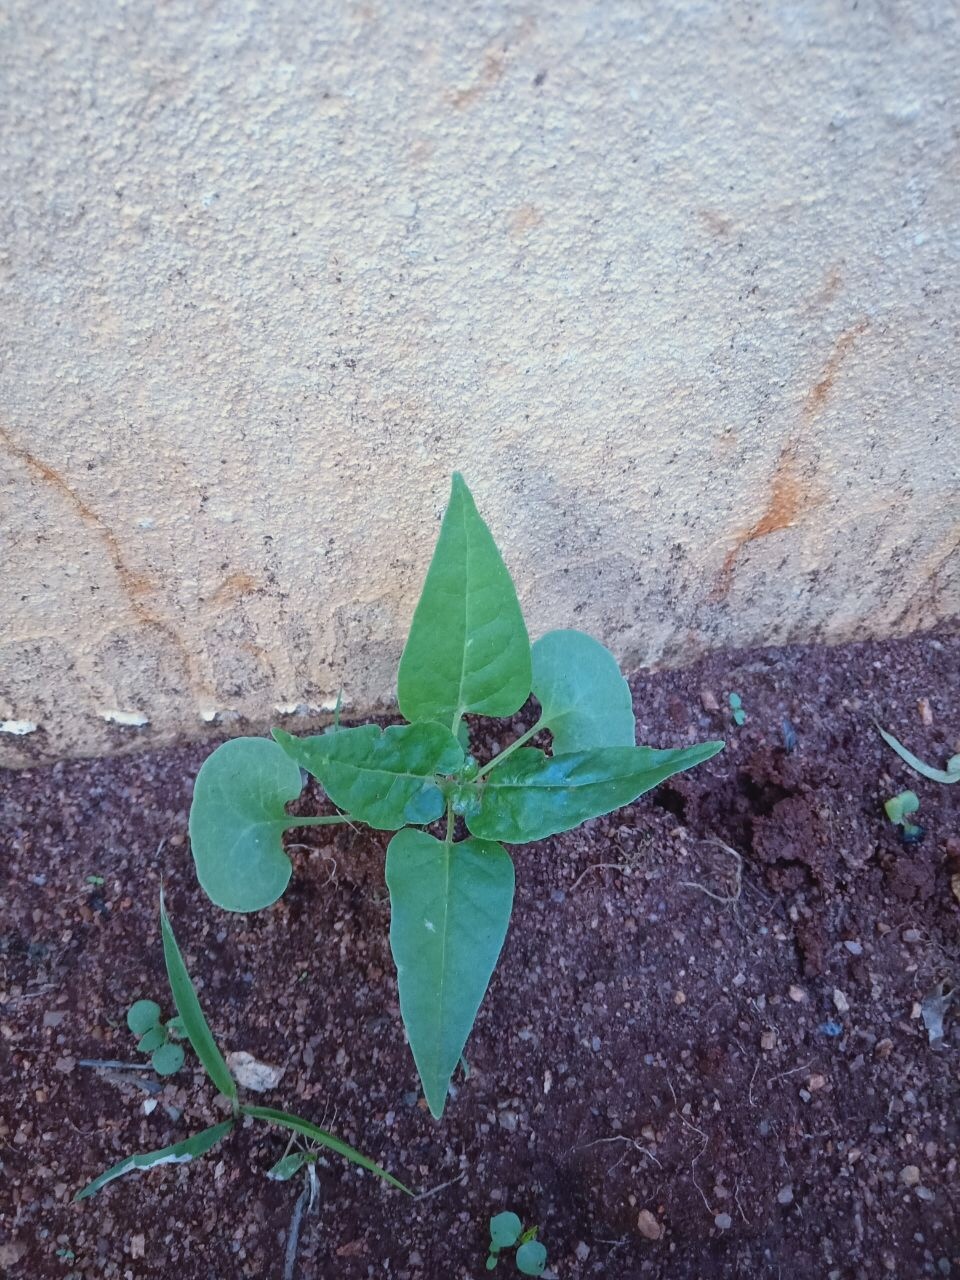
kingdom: Plantae
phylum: Tracheophyta
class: Magnoliopsida
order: Caryophyllales
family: Nyctaginaceae
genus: Mirabilis
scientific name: Mirabilis jalapa
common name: Marvel-of-peru
